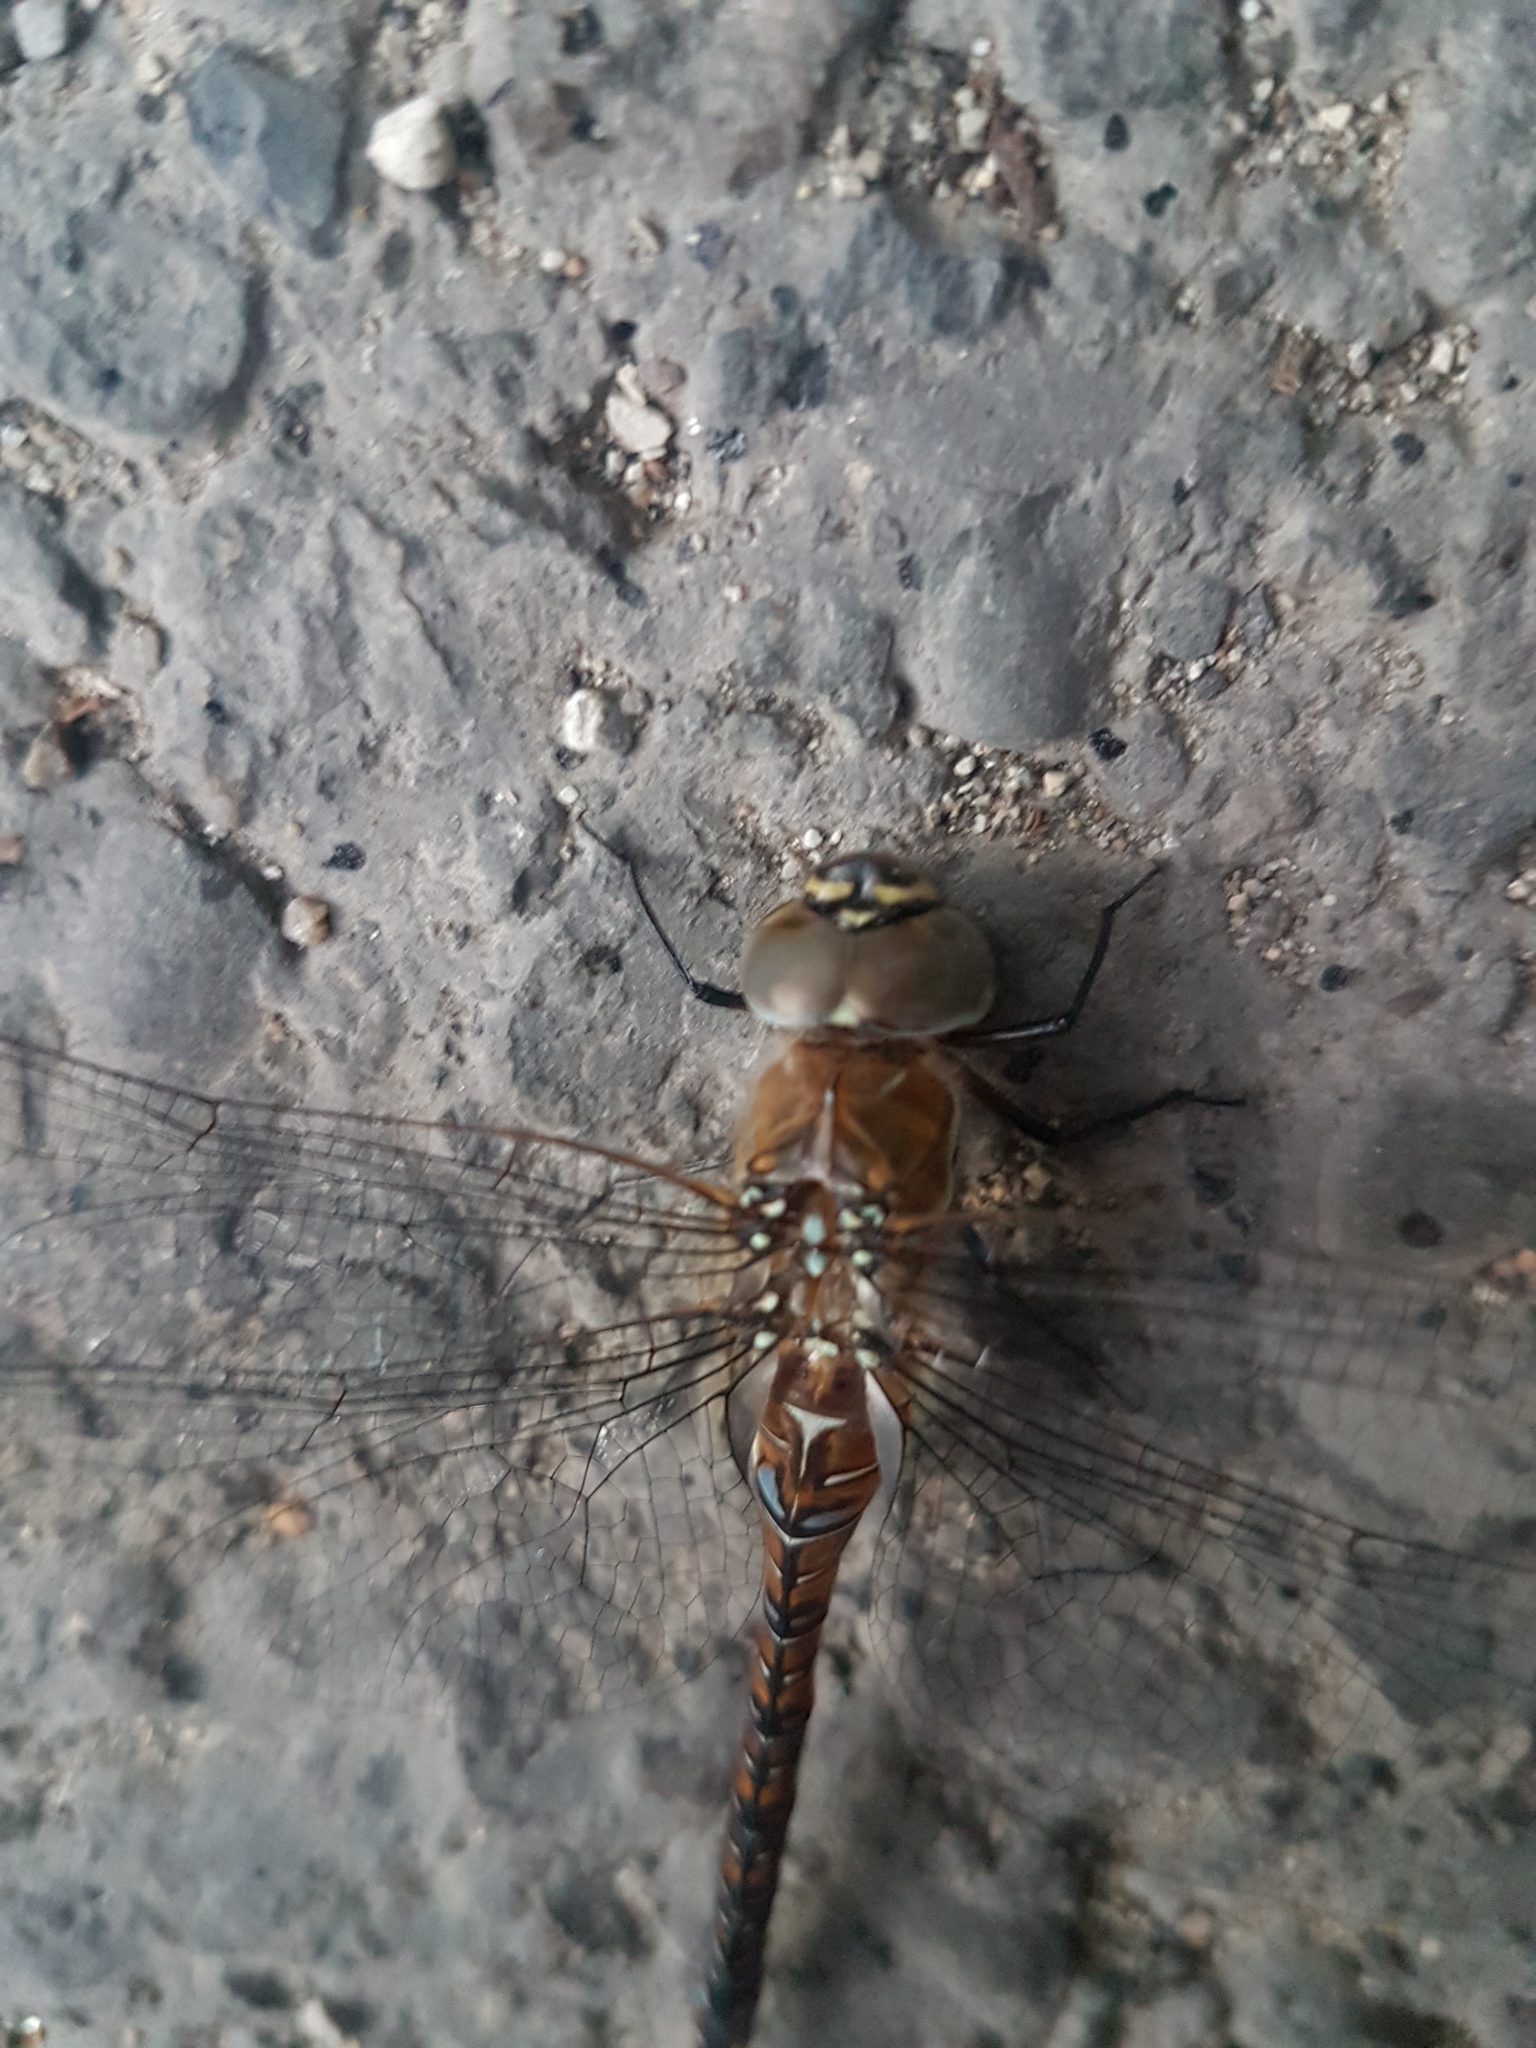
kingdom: Animalia
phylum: Arthropoda
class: Insecta
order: Odonata
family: Aeshnidae
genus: Aeshna
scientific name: Aeshna mixta
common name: Migrant hawker
